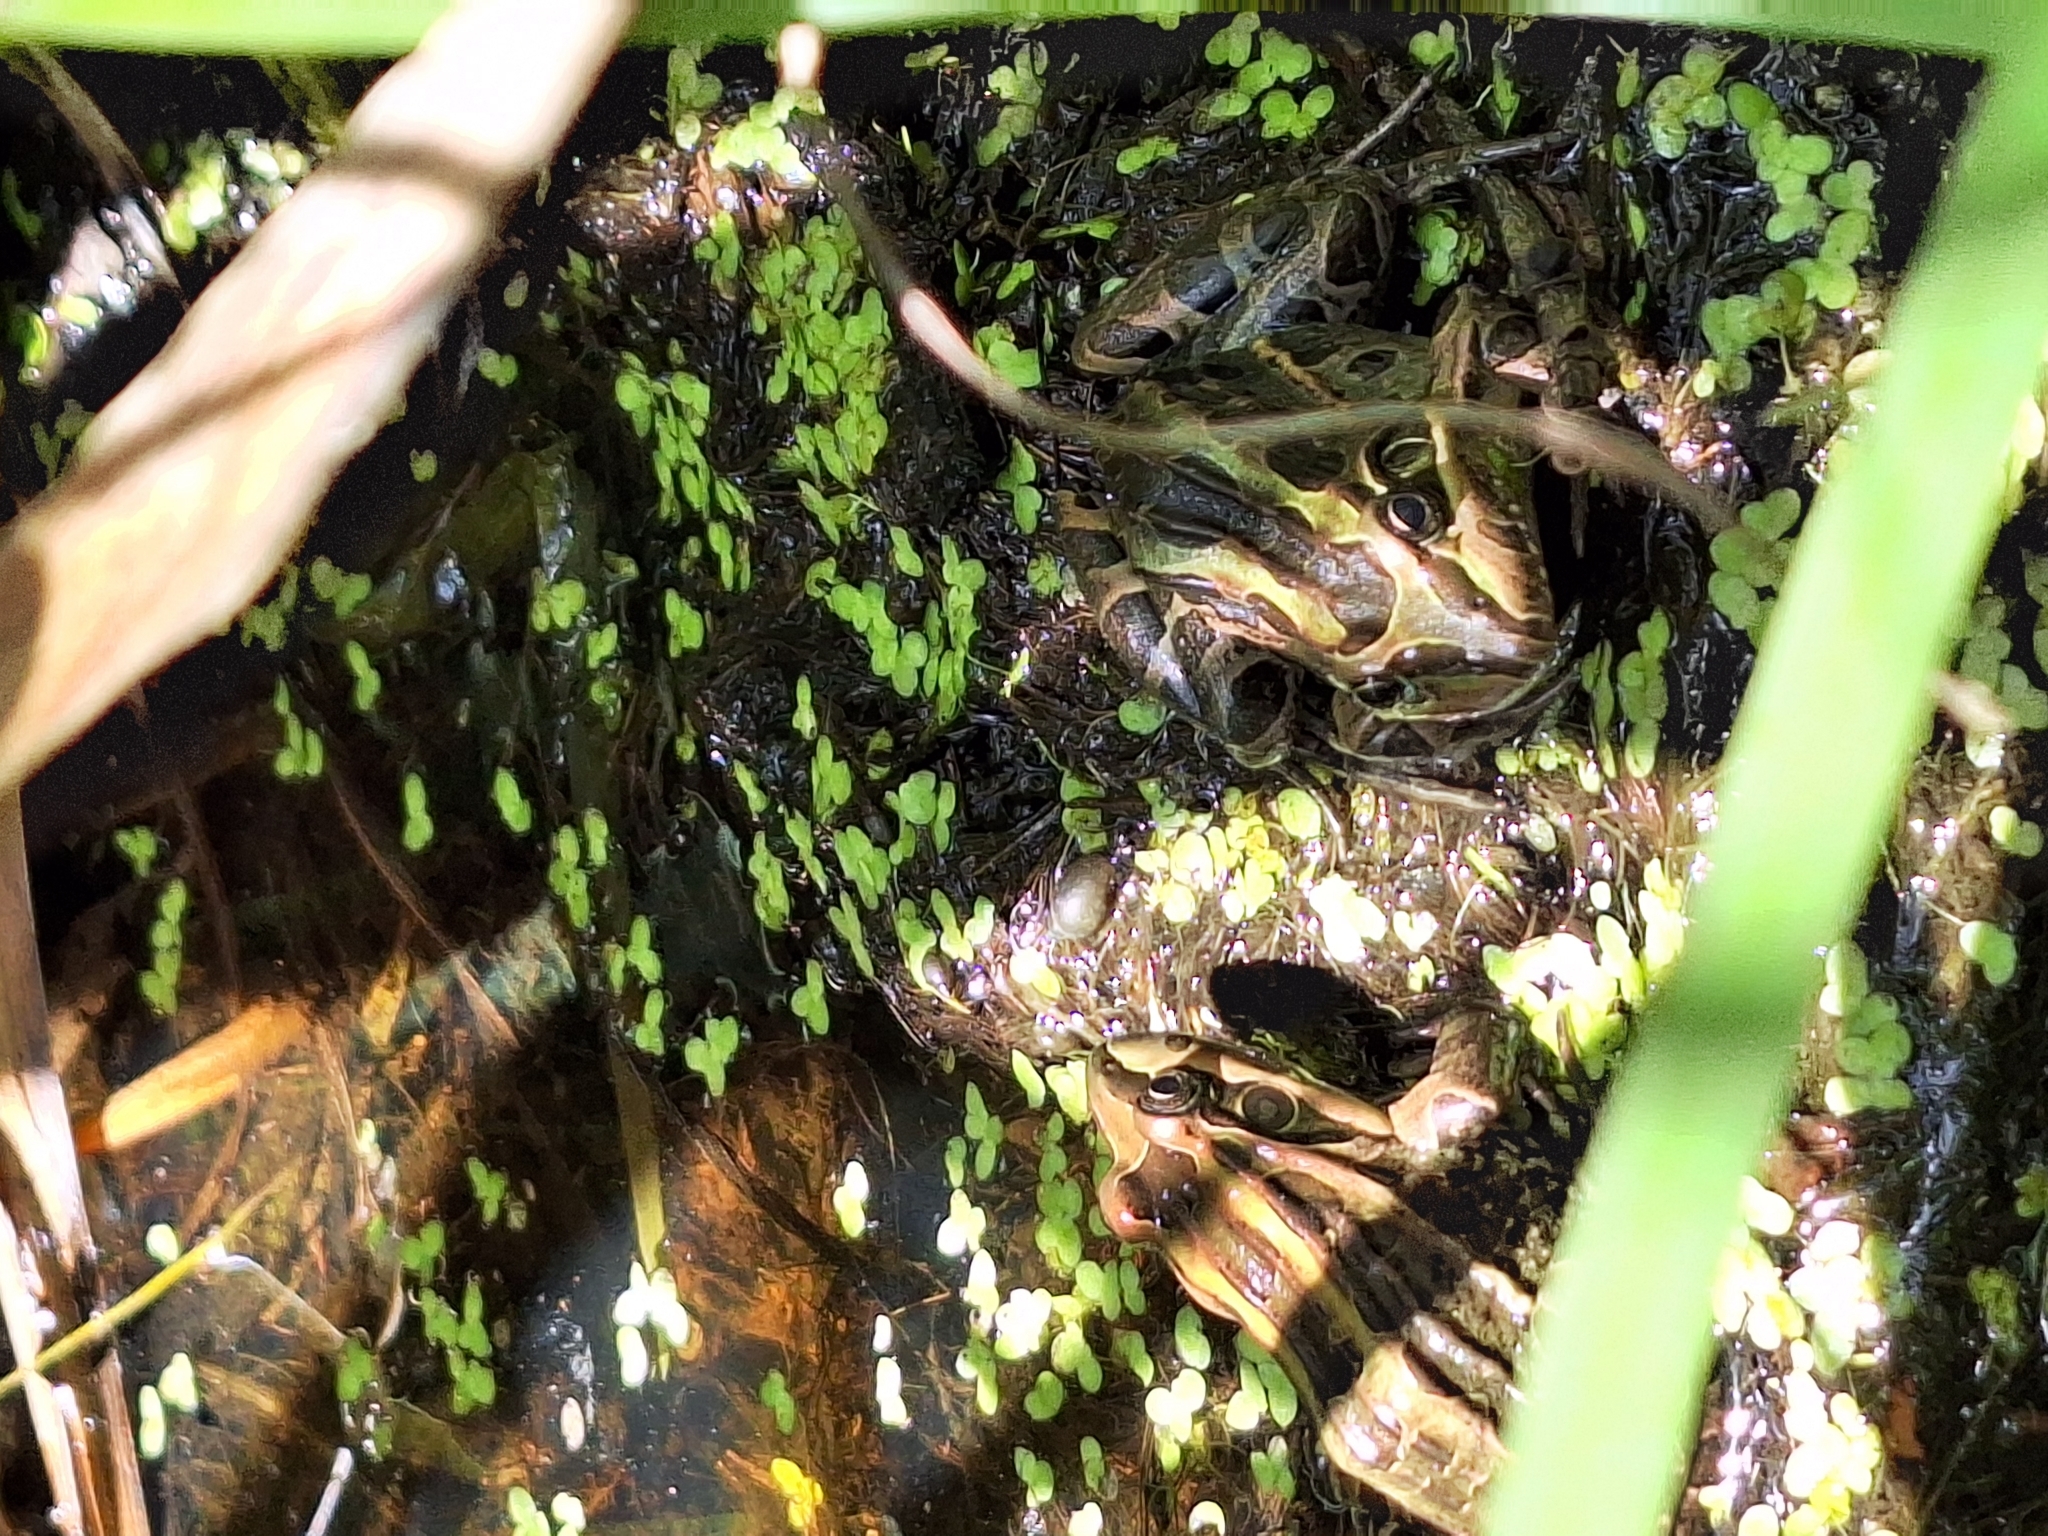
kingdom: Animalia
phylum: Chordata
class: Amphibia
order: Anura
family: Leptodactylidae
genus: Leptodactylus
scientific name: Leptodactylus luctator
